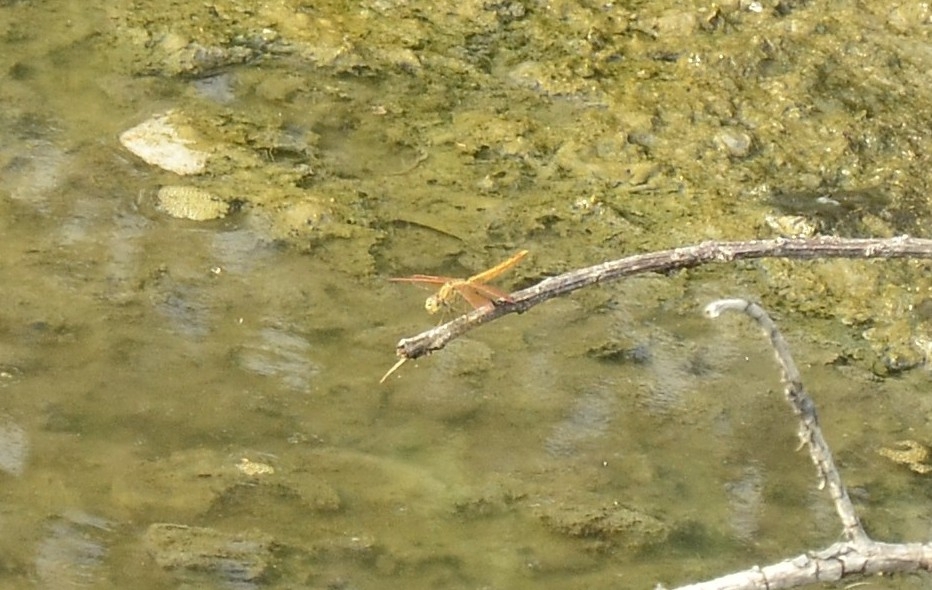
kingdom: Animalia
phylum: Arthropoda
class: Insecta
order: Odonata
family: Libellulidae
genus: Brachythemis
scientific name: Brachythemis contaminata
